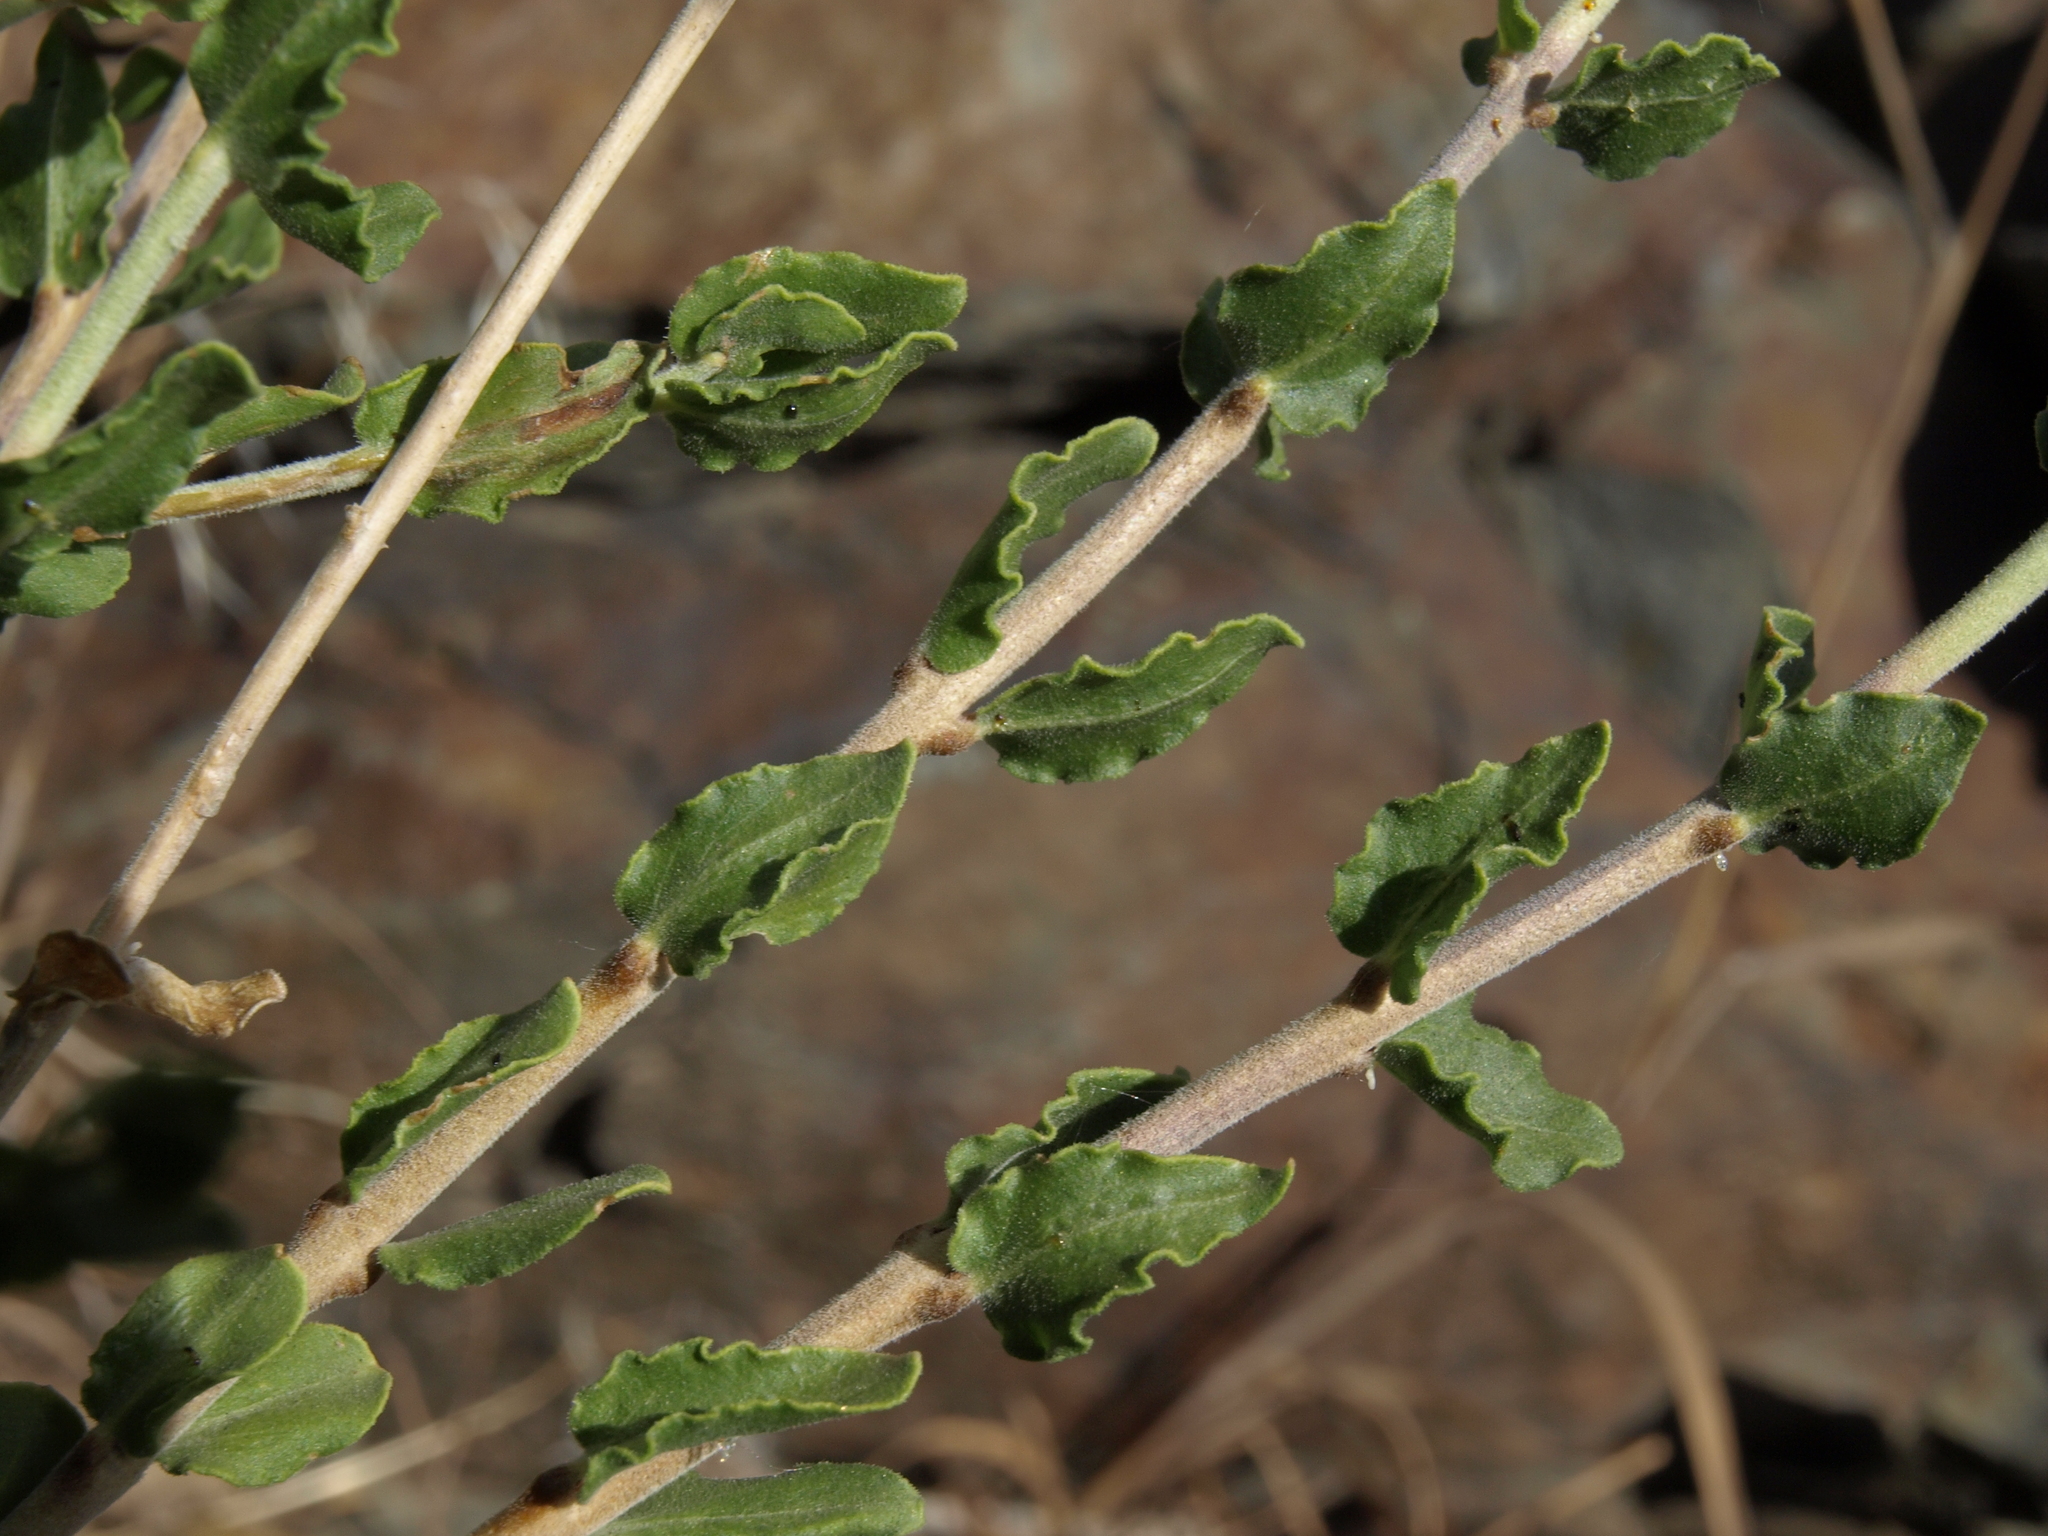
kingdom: Plantae
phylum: Tracheophyta
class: Magnoliopsida
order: Lamiales
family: Plantaginaceae
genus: Keckiella
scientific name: Keckiella rothrockii
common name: Rothrock's keckiella
